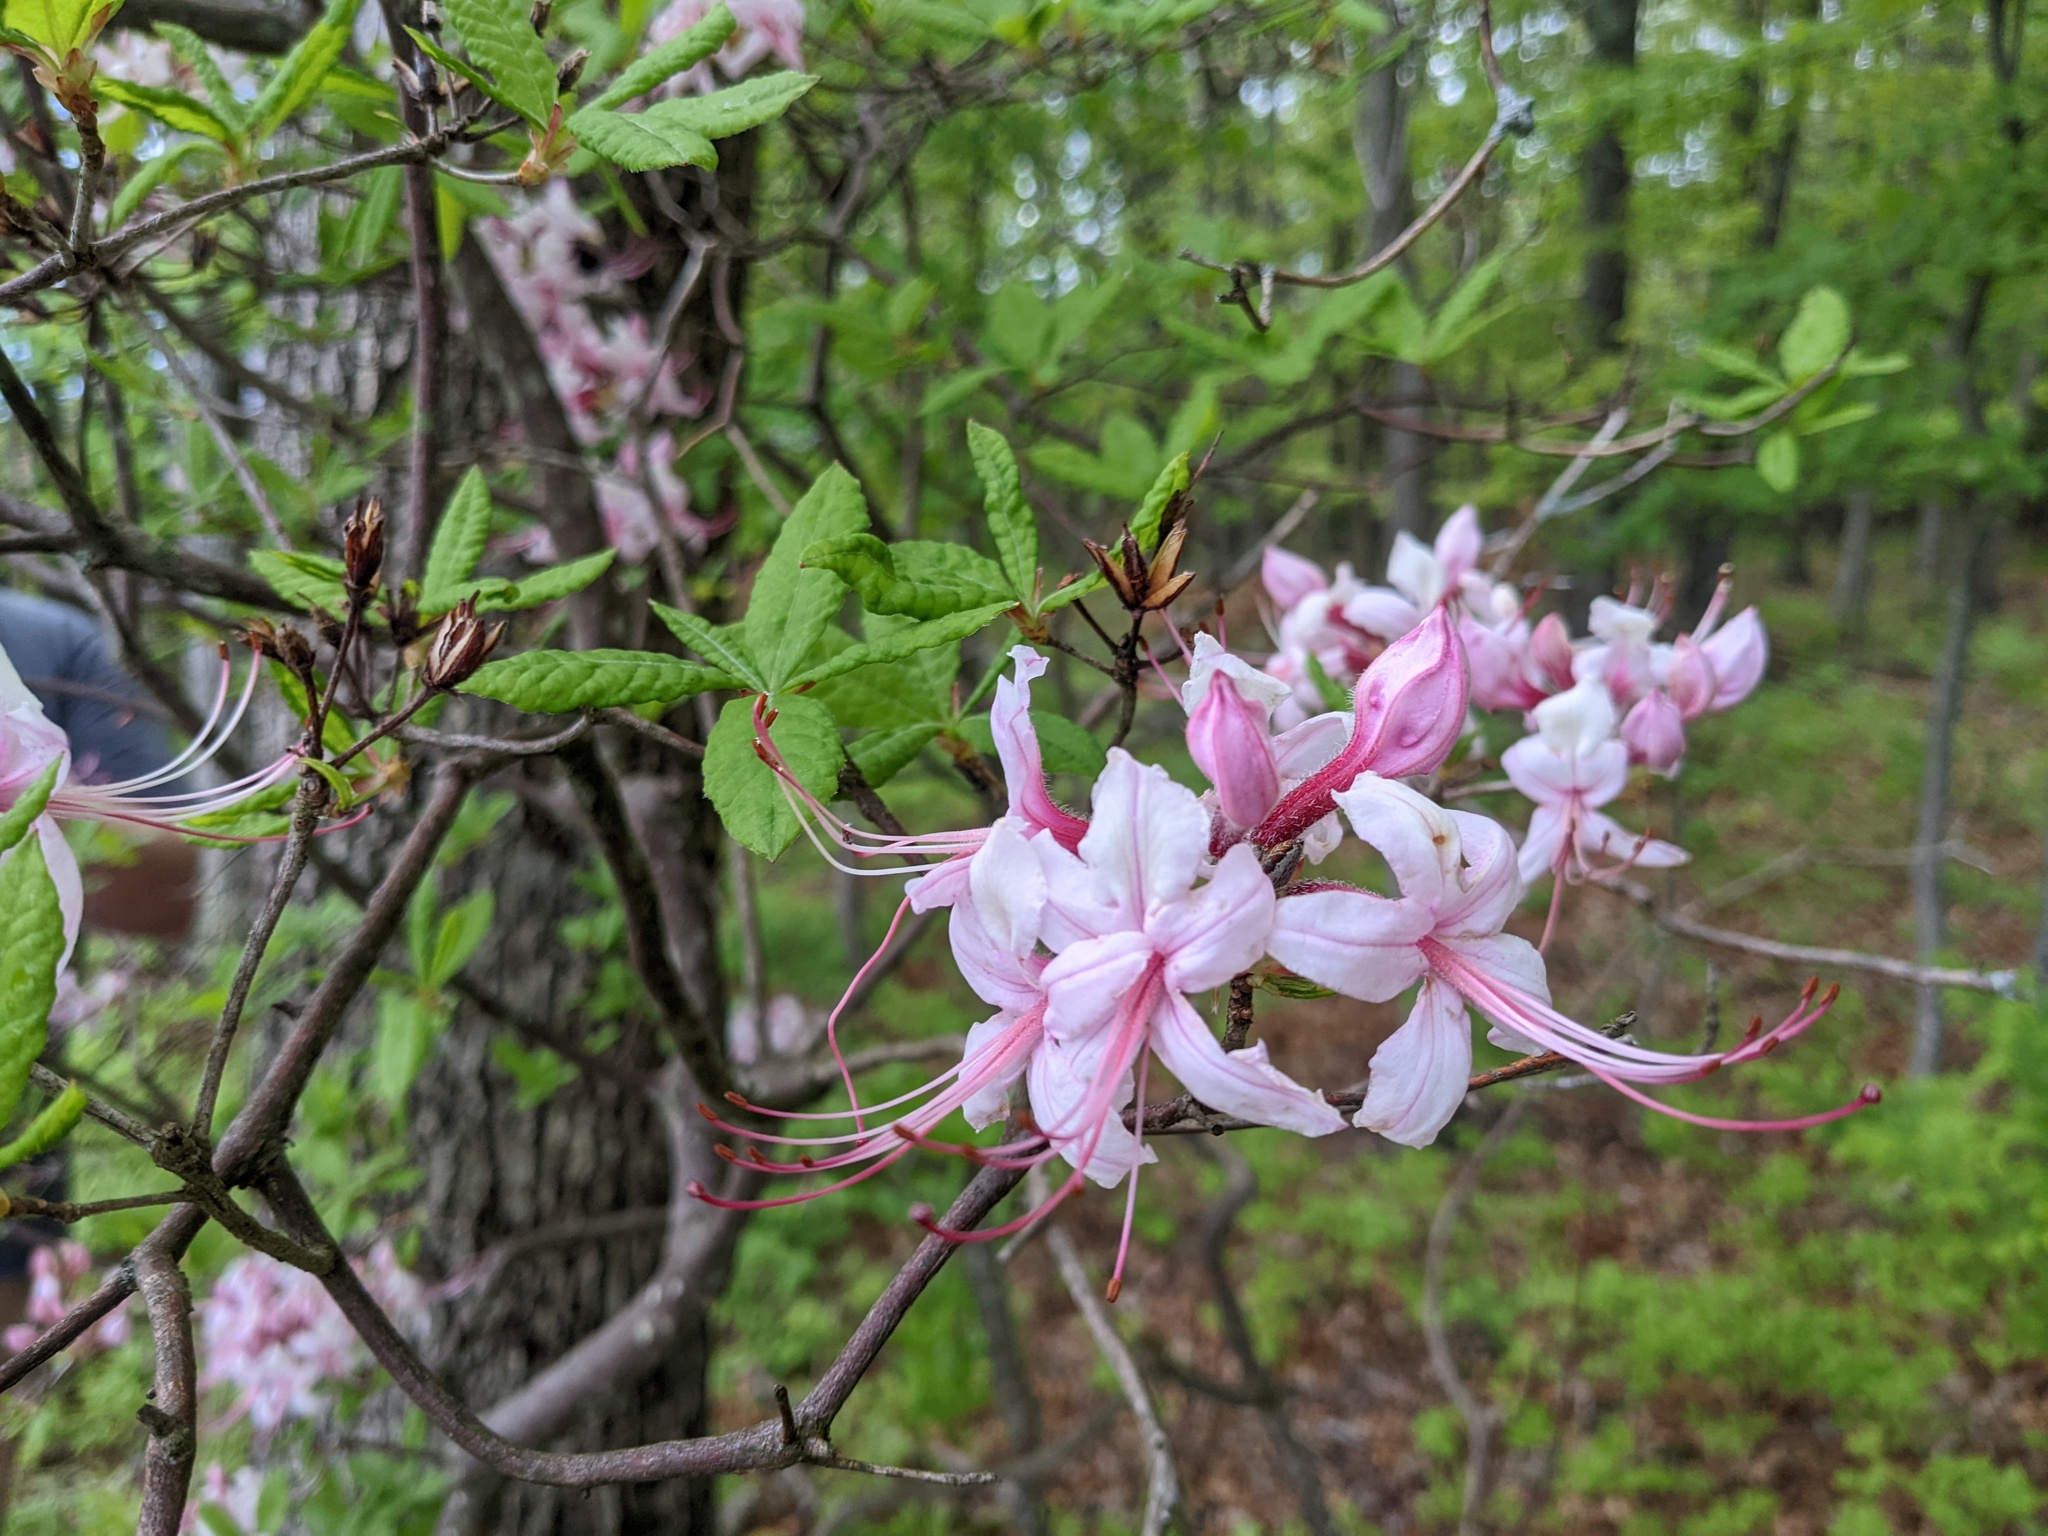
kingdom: Plantae
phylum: Tracheophyta
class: Magnoliopsida
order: Ericales
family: Ericaceae
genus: Rhododendron
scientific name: Rhododendron periclymenoides
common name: Election-pink
